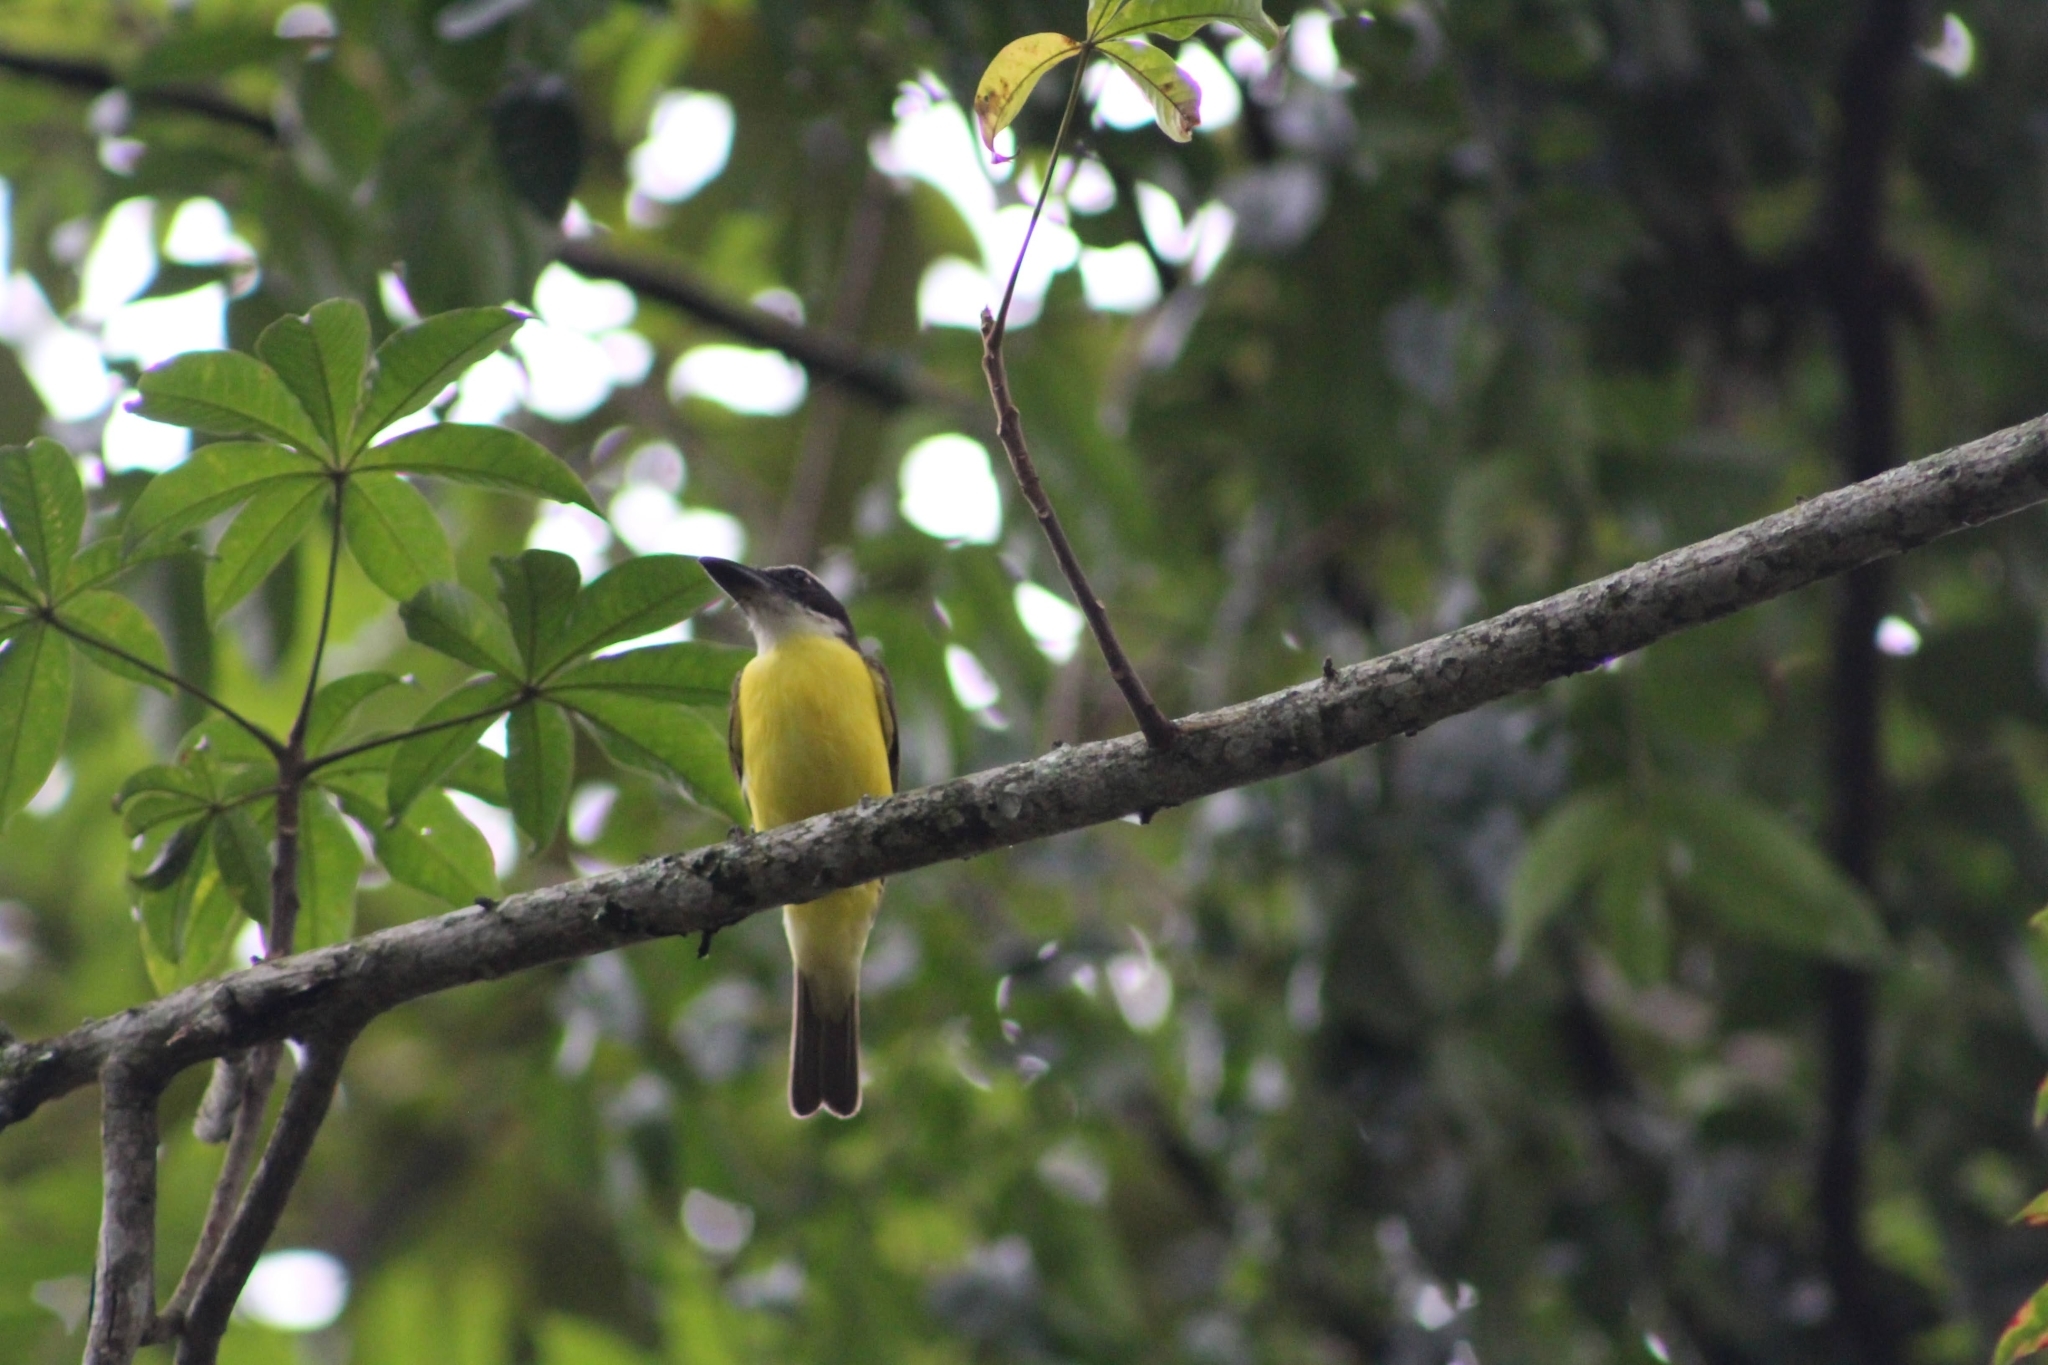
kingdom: Animalia
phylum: Chordata
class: Aves
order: Passeriformes
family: Tyrannidae
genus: Megarynchus
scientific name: Megarynchus pitangua
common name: Boat-billed flycatcher
